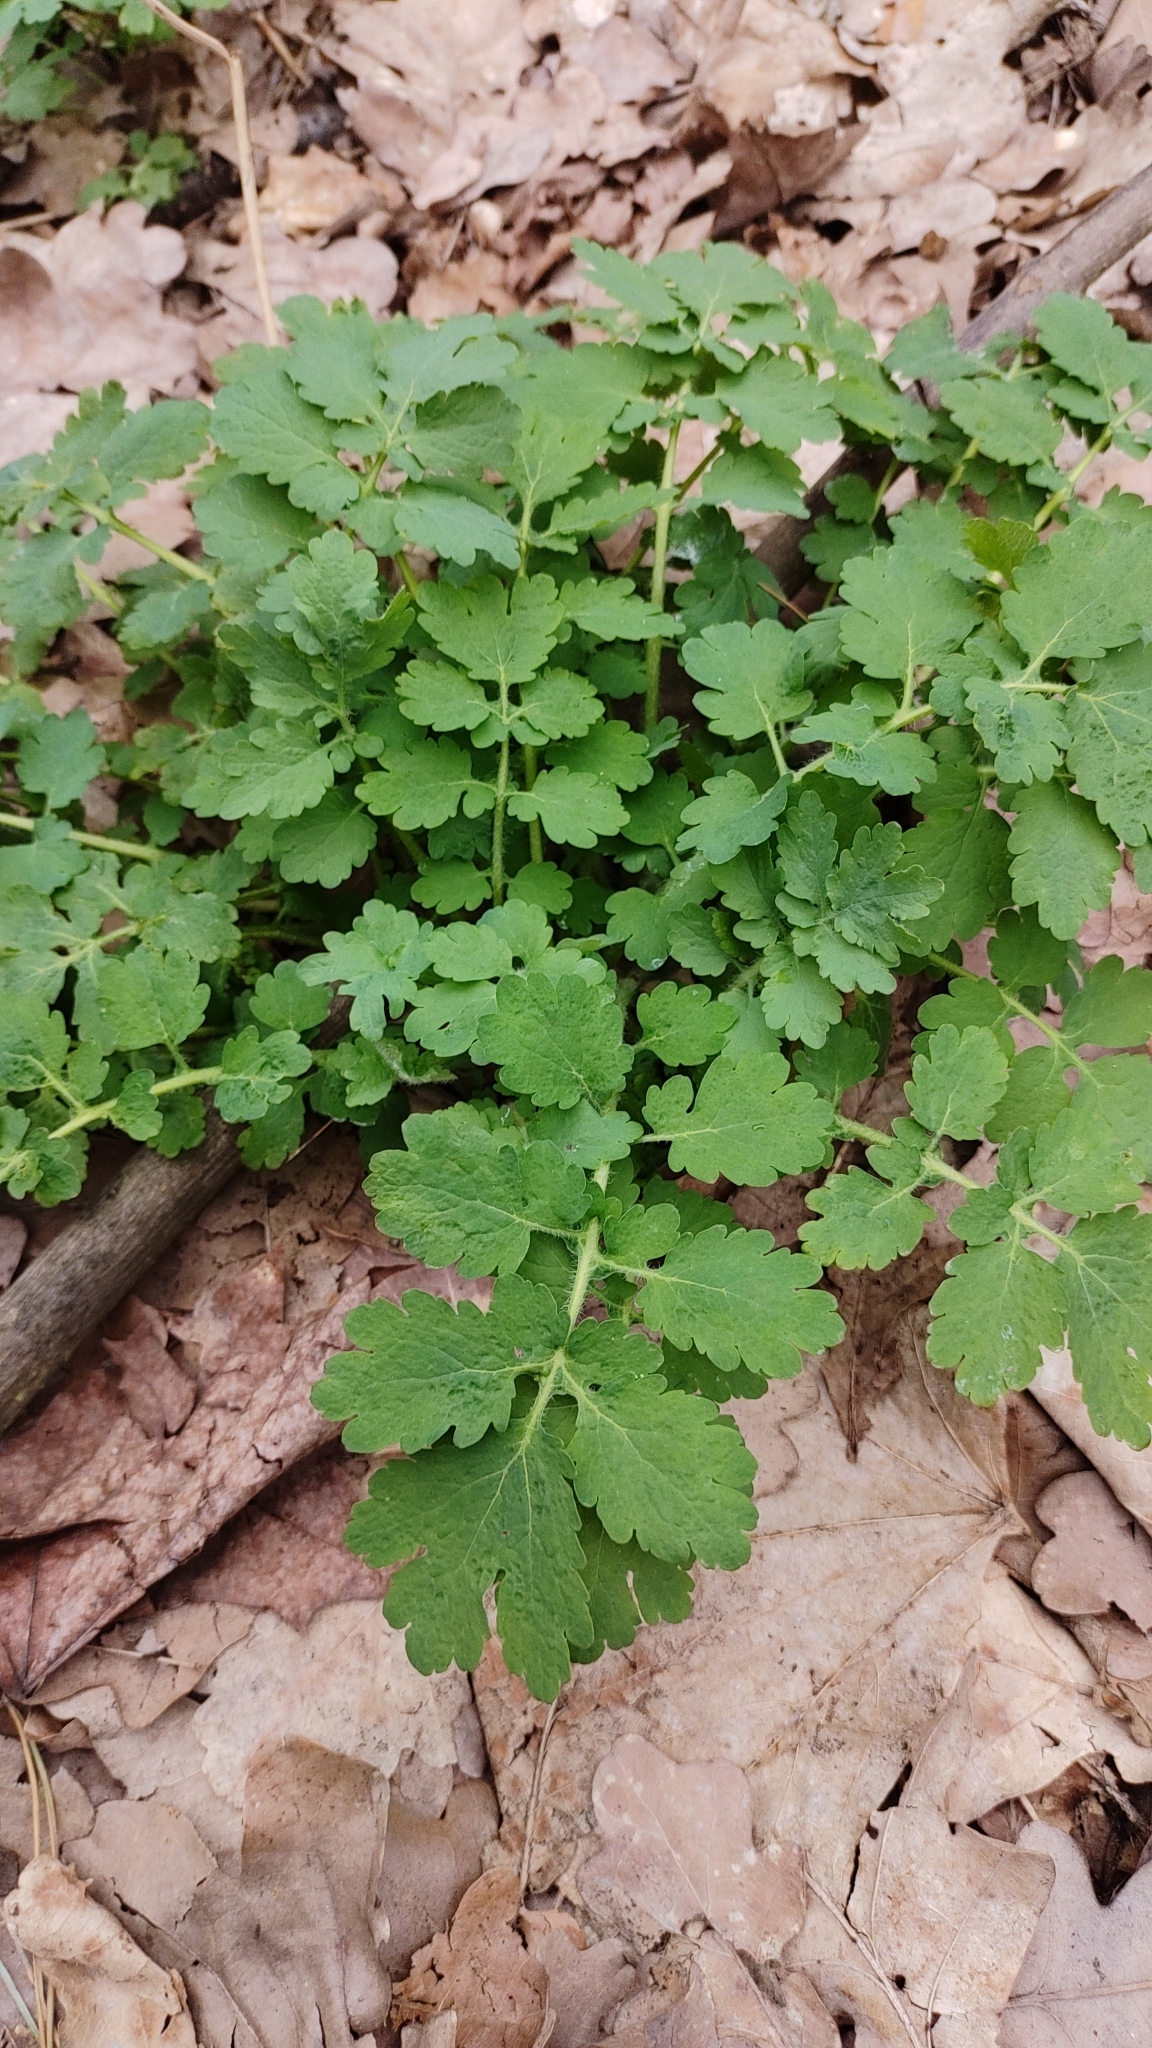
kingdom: Plantae
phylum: Tracheophyta
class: Magnoliopsida
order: Ranunculales
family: Papaveraceae
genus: Chelidonium
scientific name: Chelidonium majus
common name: Greater celandine
